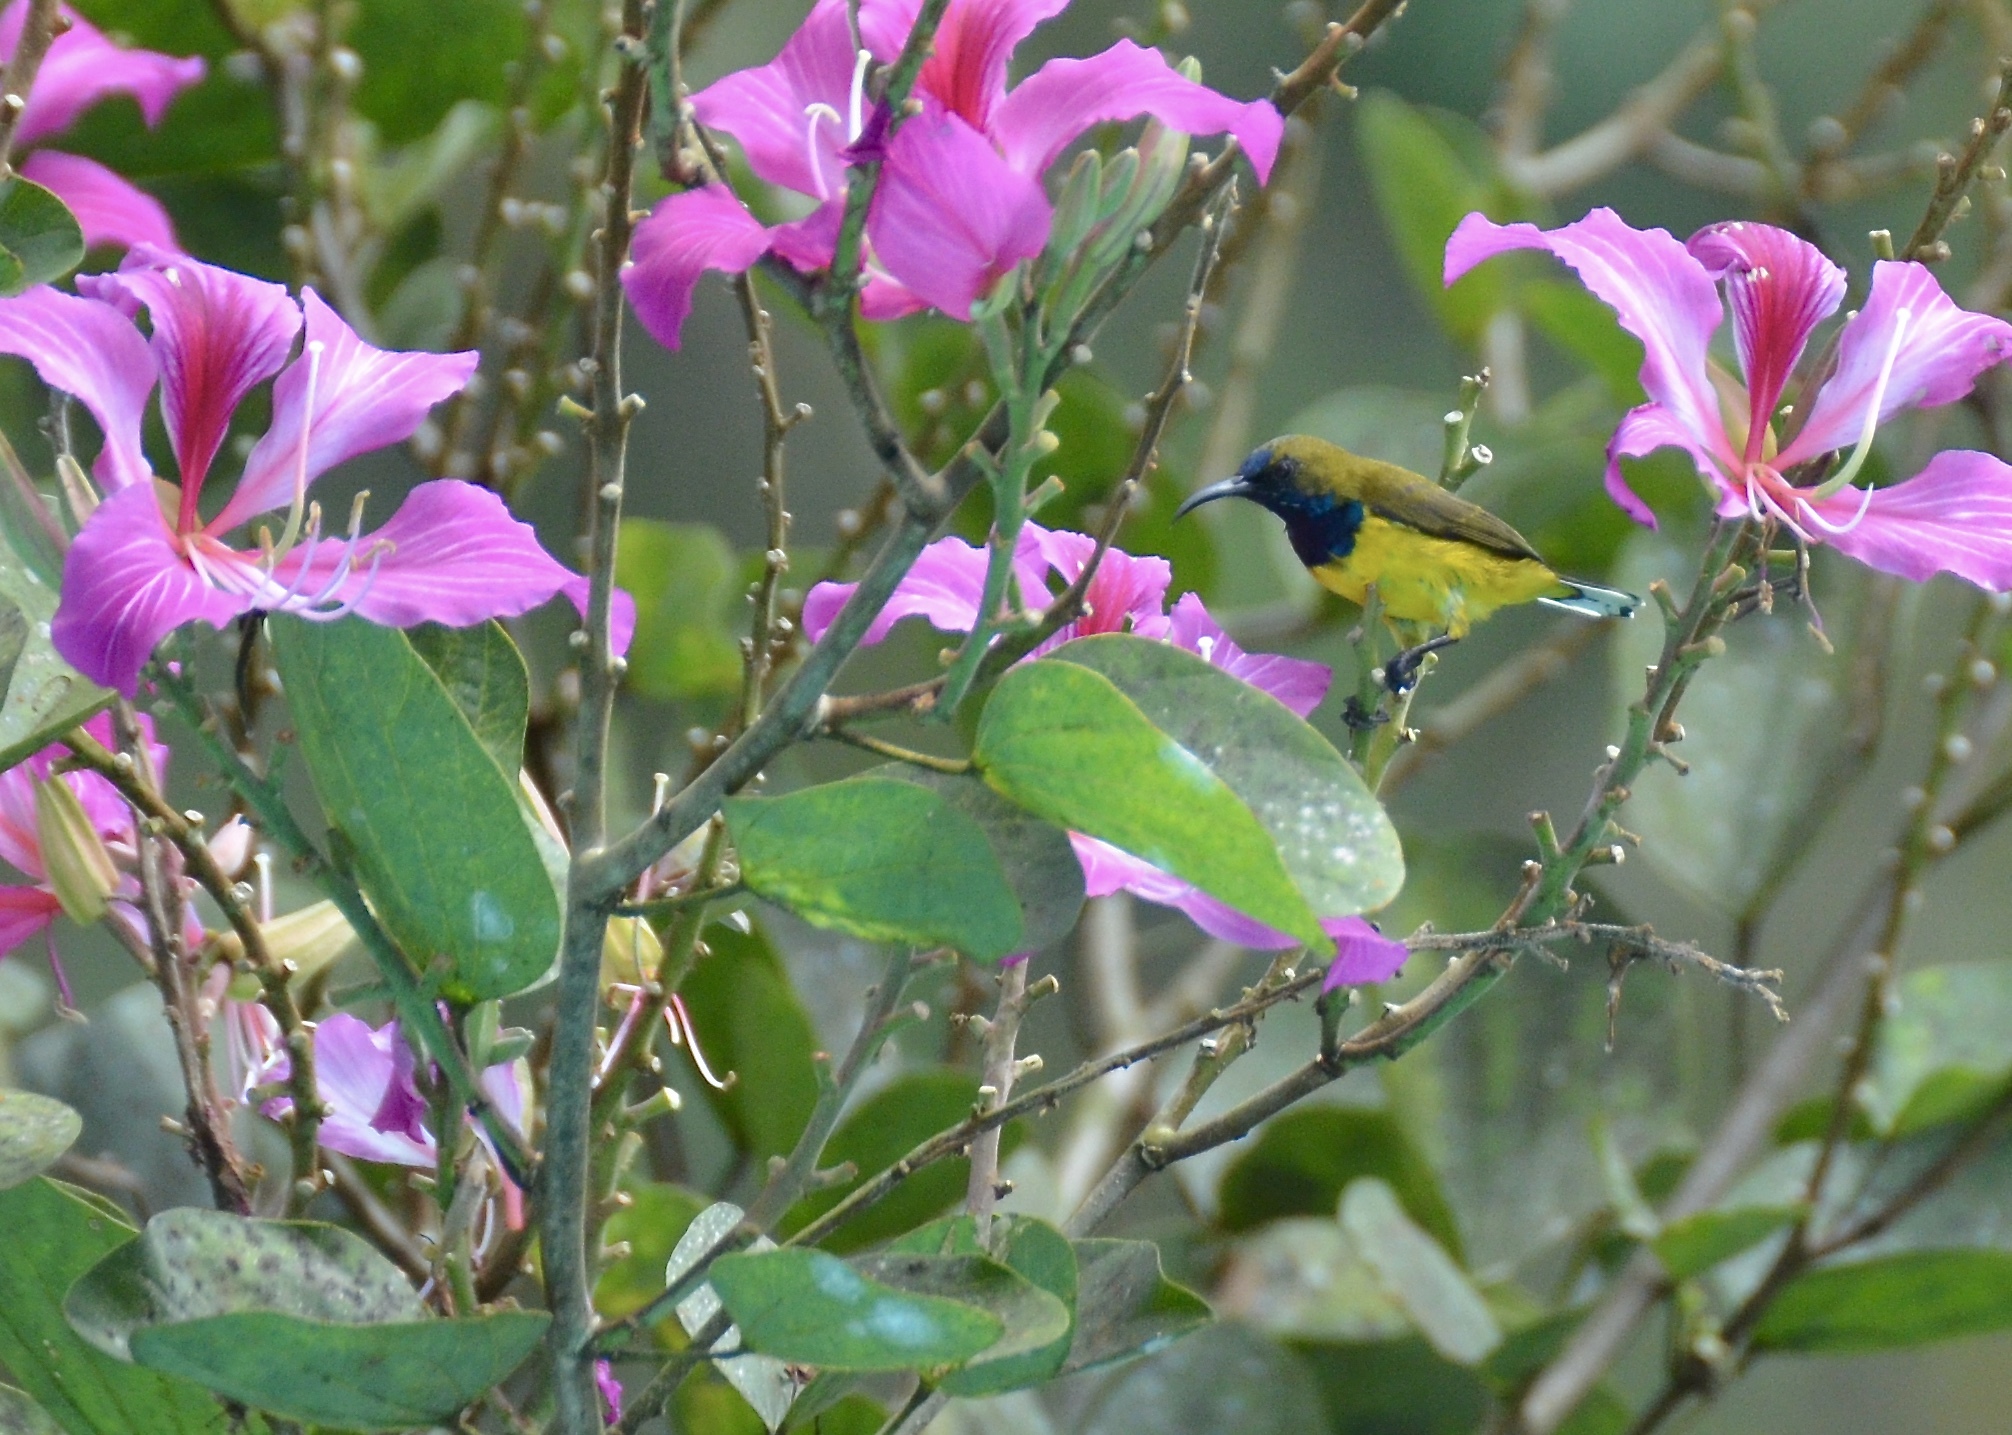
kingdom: Animalia
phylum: Chordata
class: Aves
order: Passeriformes
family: Nectariniidae
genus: Cinnyris
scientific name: Cinnyris
